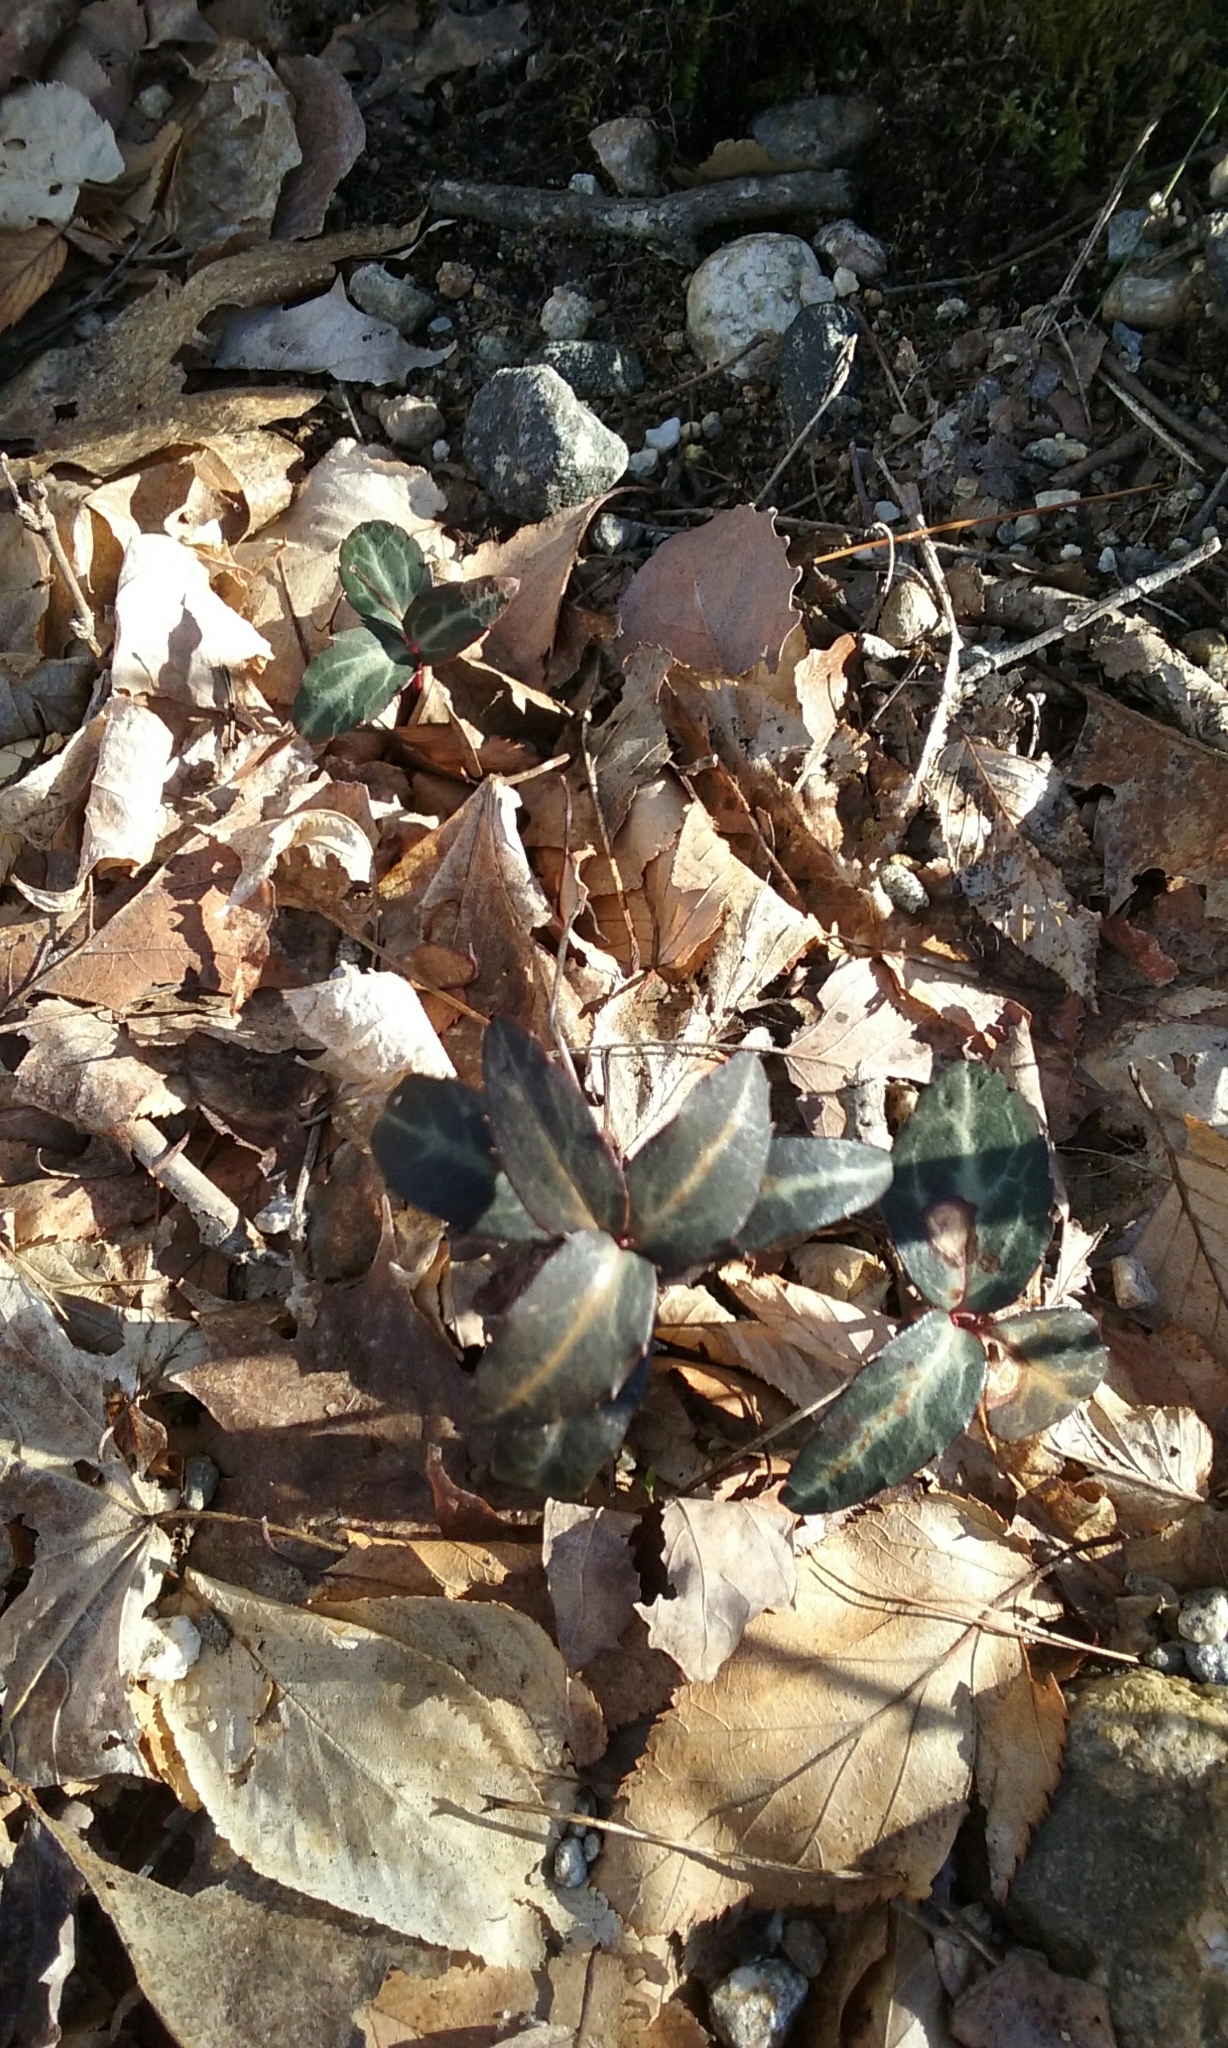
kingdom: Plantae
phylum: Tracheophyta
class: Magnoliopsida
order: Ericales
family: Ericaceae
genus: Chimaphila
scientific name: Chimaphila maculata
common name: Spotted pipsissewa
